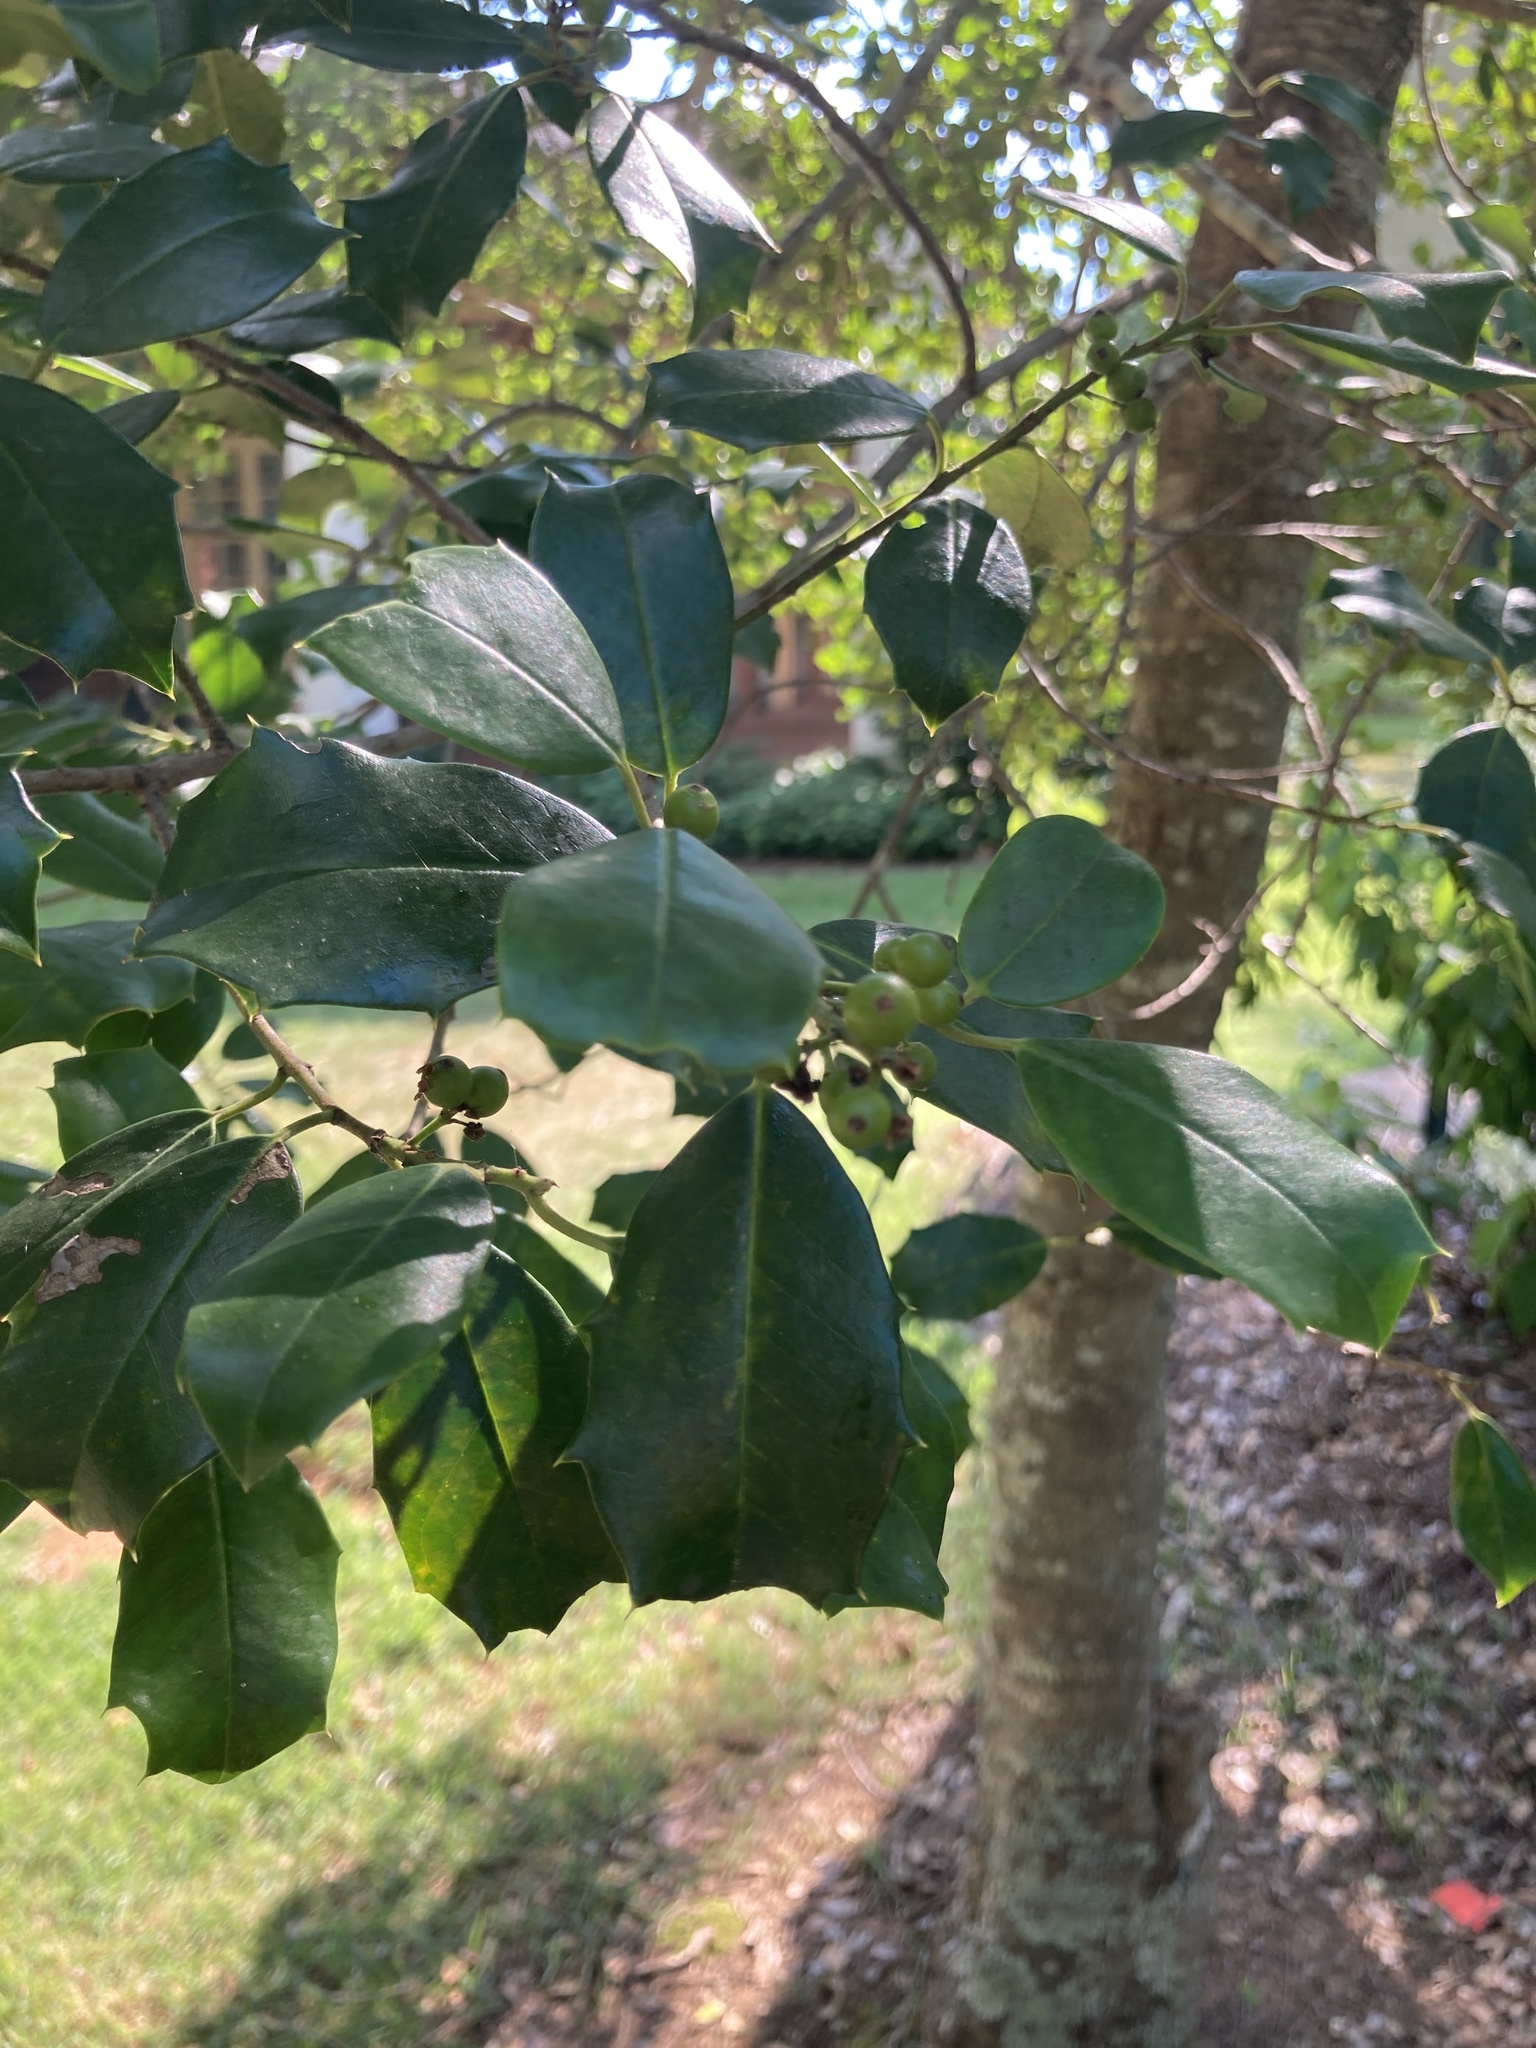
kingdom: Plantae
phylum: Tracheophyta
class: Magnoliopsida
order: Aquifoliales
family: Aquifoliaceae
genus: Ilex
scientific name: Ilex opaca
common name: American holly
